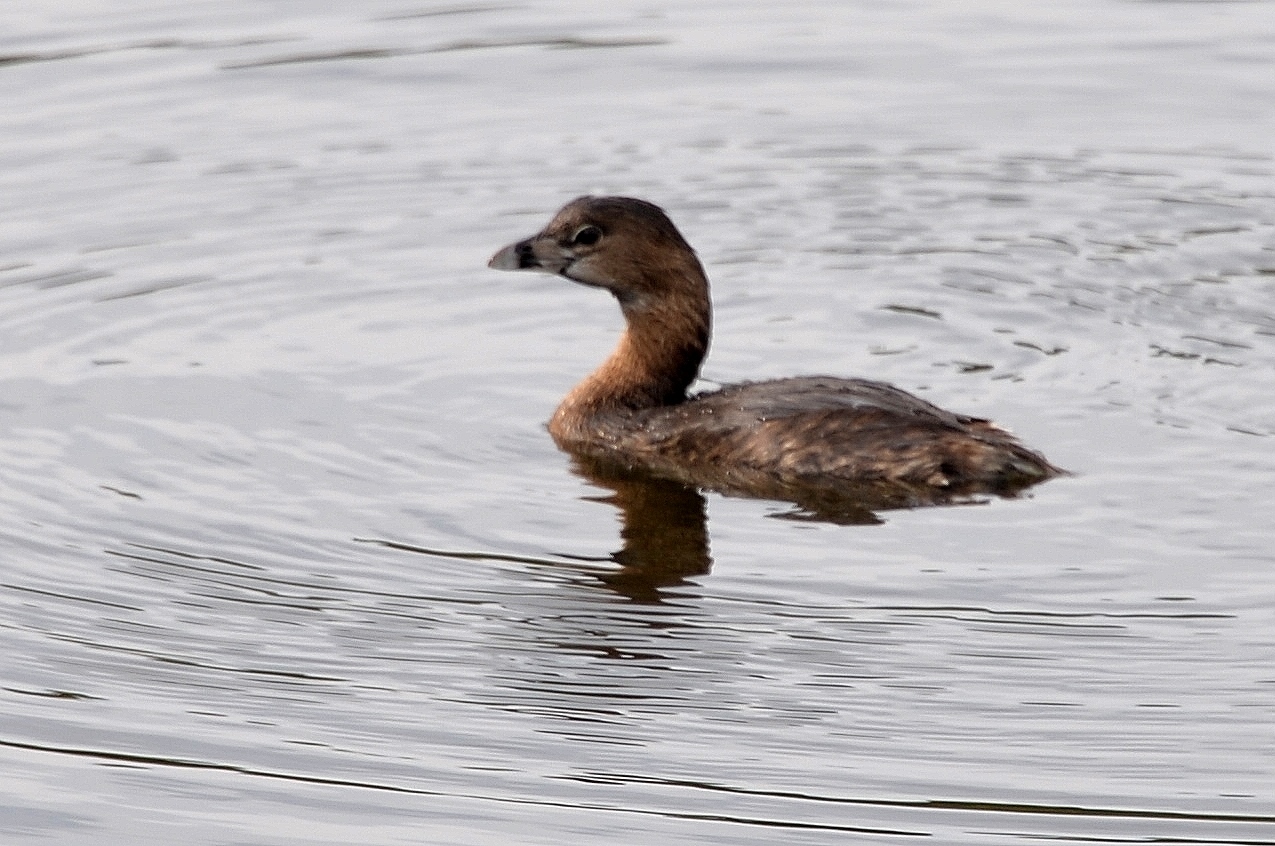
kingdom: Animalia
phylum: Chordata
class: Aves
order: Podicipediformes
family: Podicipedidae
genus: Podilymbus
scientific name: Podilymbus podiceps
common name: Pied-billed grebe
